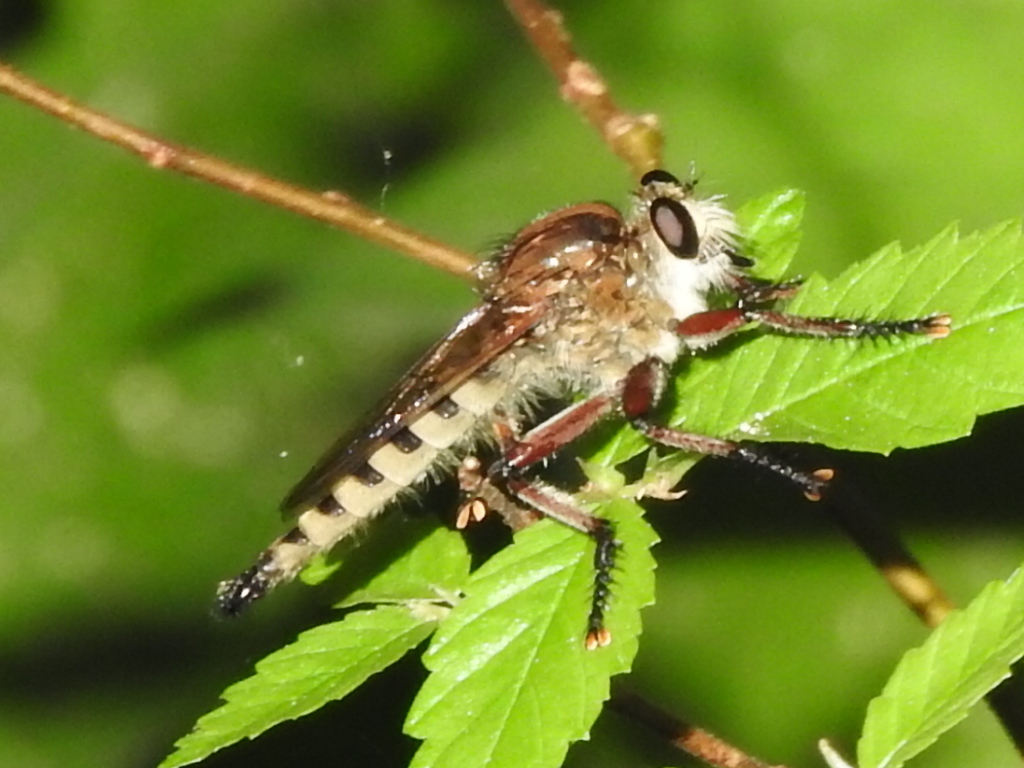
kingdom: Animalia
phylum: Arthropoda
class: Insecta
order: Diptera
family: Asilidae
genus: Promachus
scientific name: Promachus hinei
